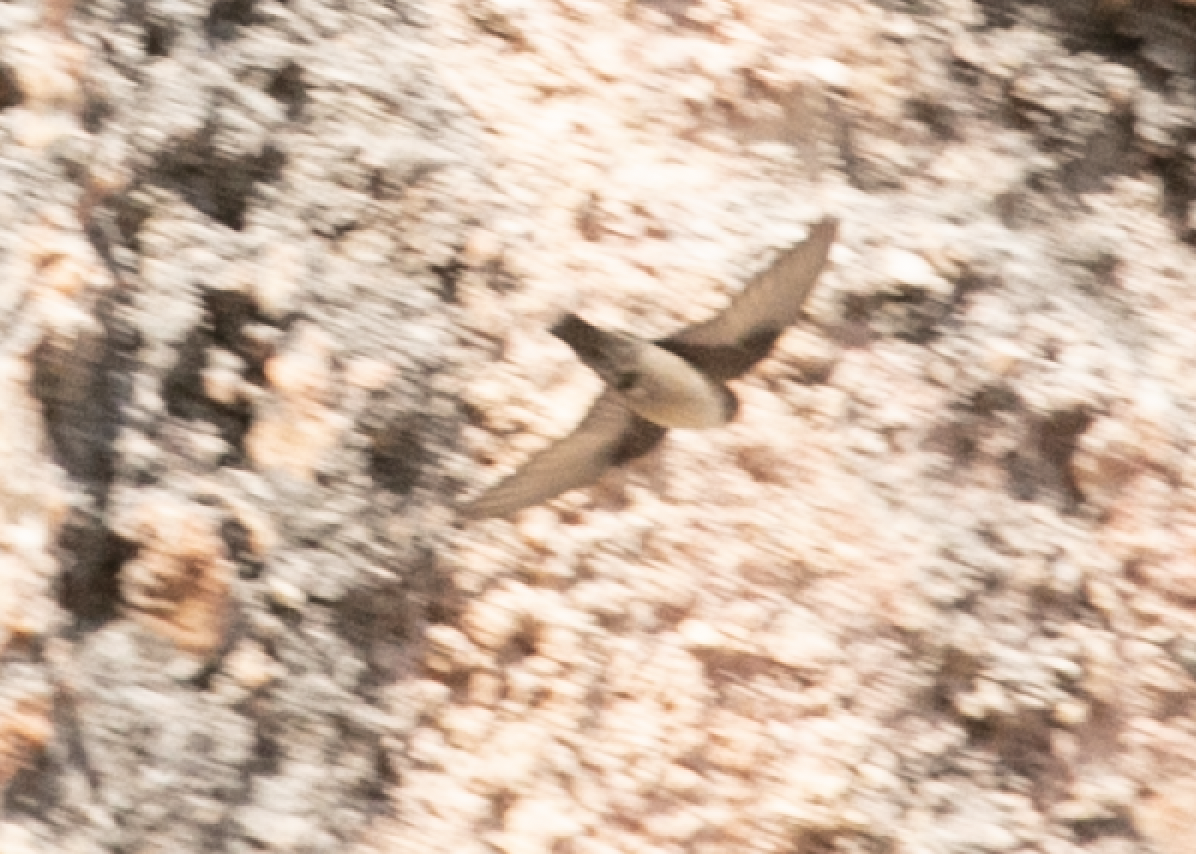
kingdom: Animalia
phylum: Chordata
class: Aves
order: Passeriformes
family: Hirundinidae
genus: Ptyonoprogne
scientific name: Ptyonoprogne rupestris
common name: Eurasian crag martin
